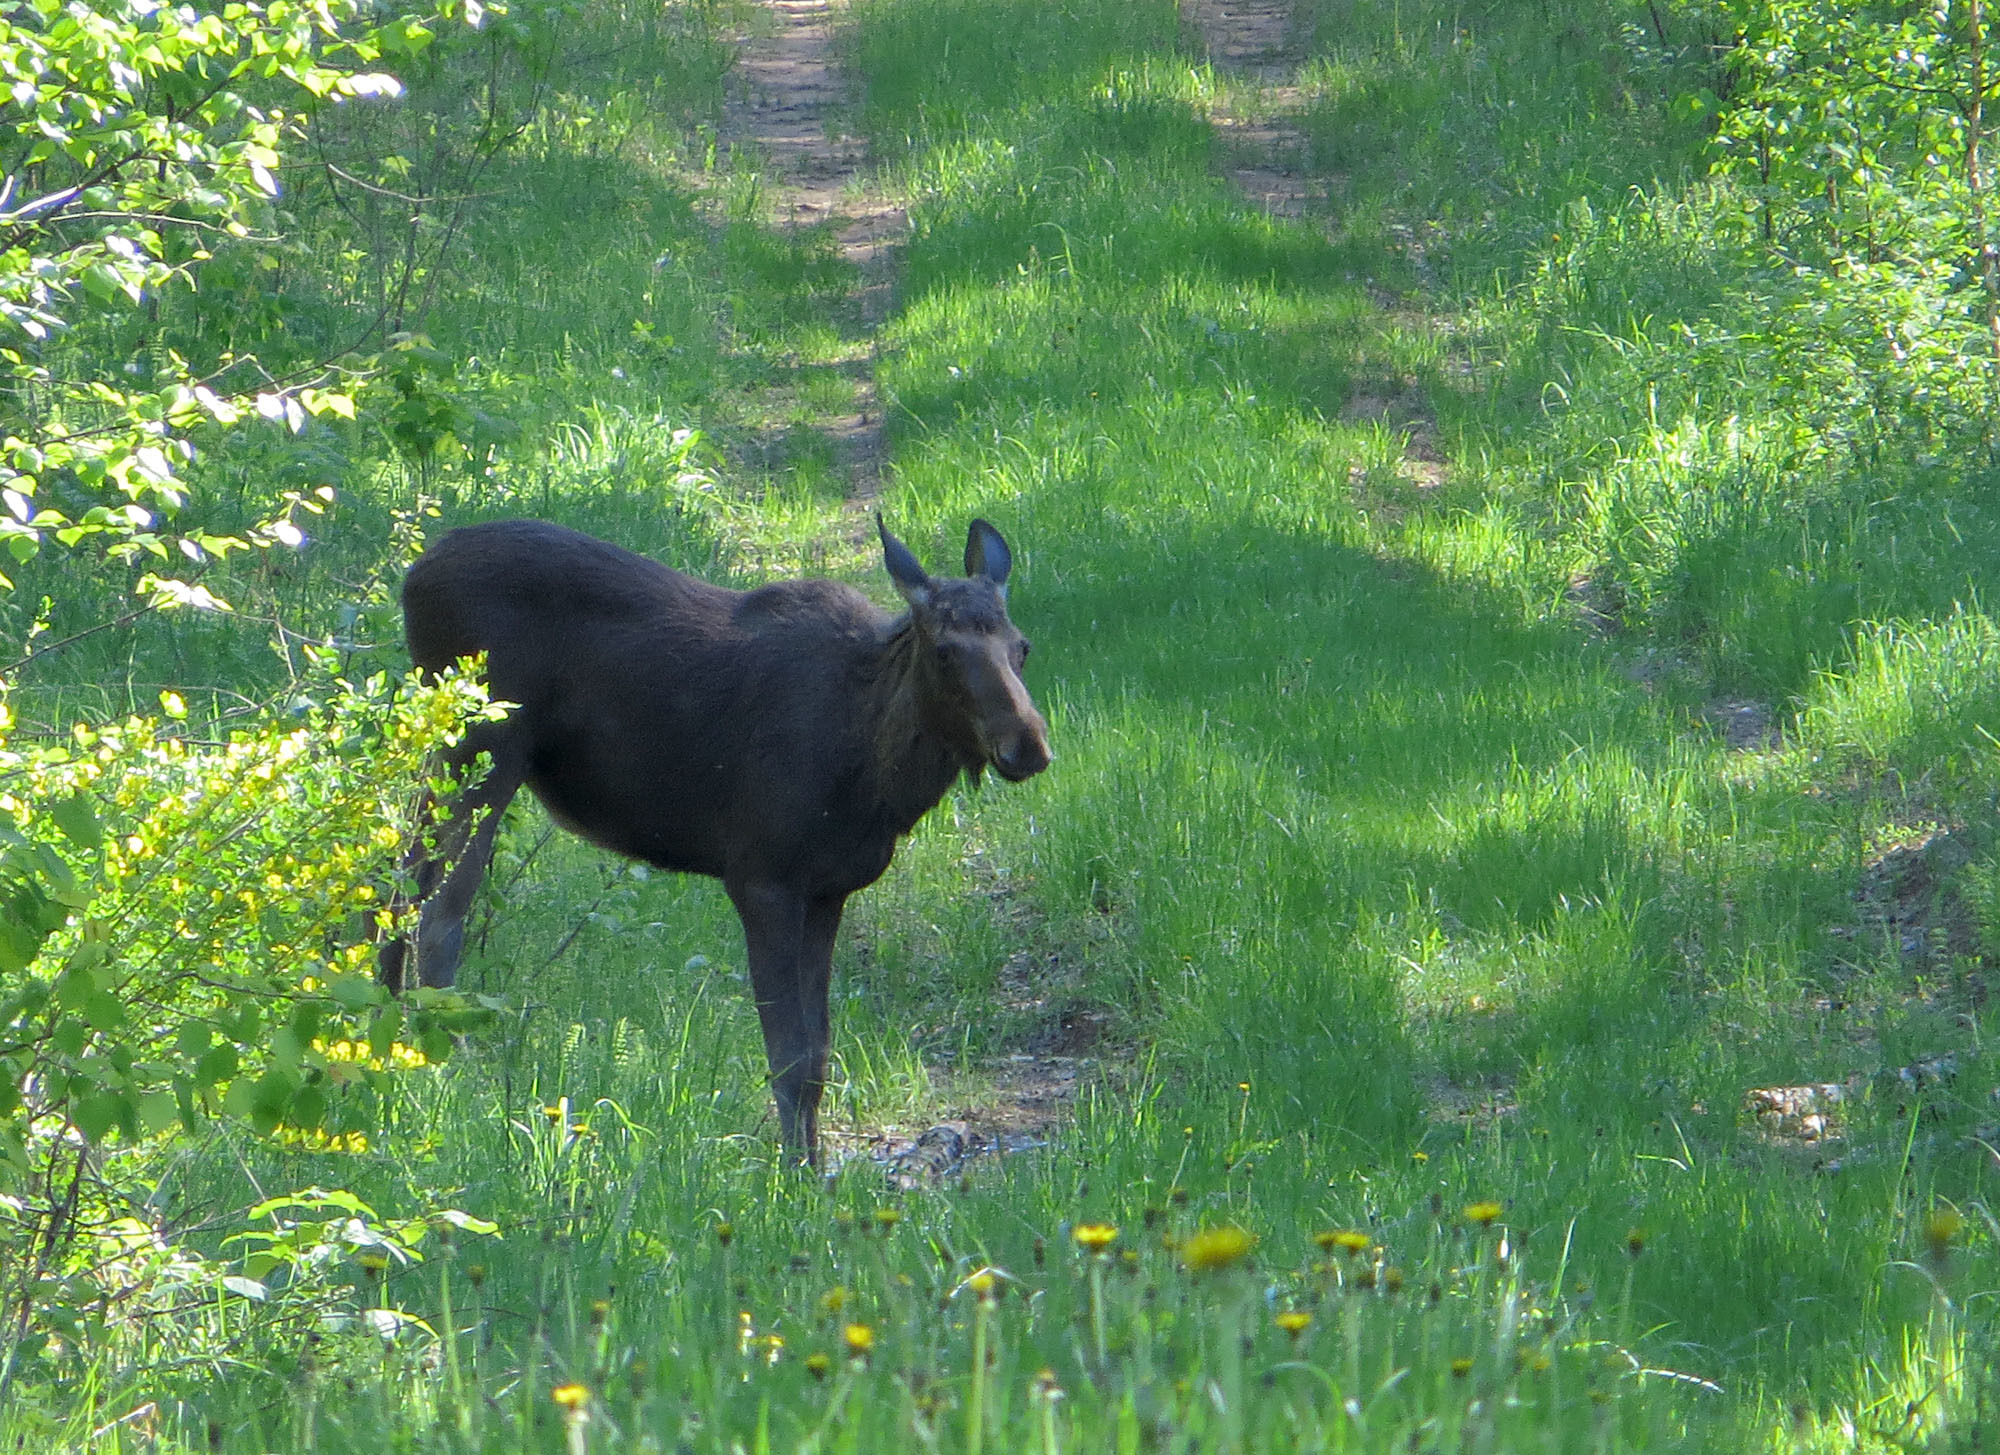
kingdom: Animalia
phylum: Chordata
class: Mammalia
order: Artiodactyla
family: Cervidae
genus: Alces
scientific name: Alces alces
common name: Moose
